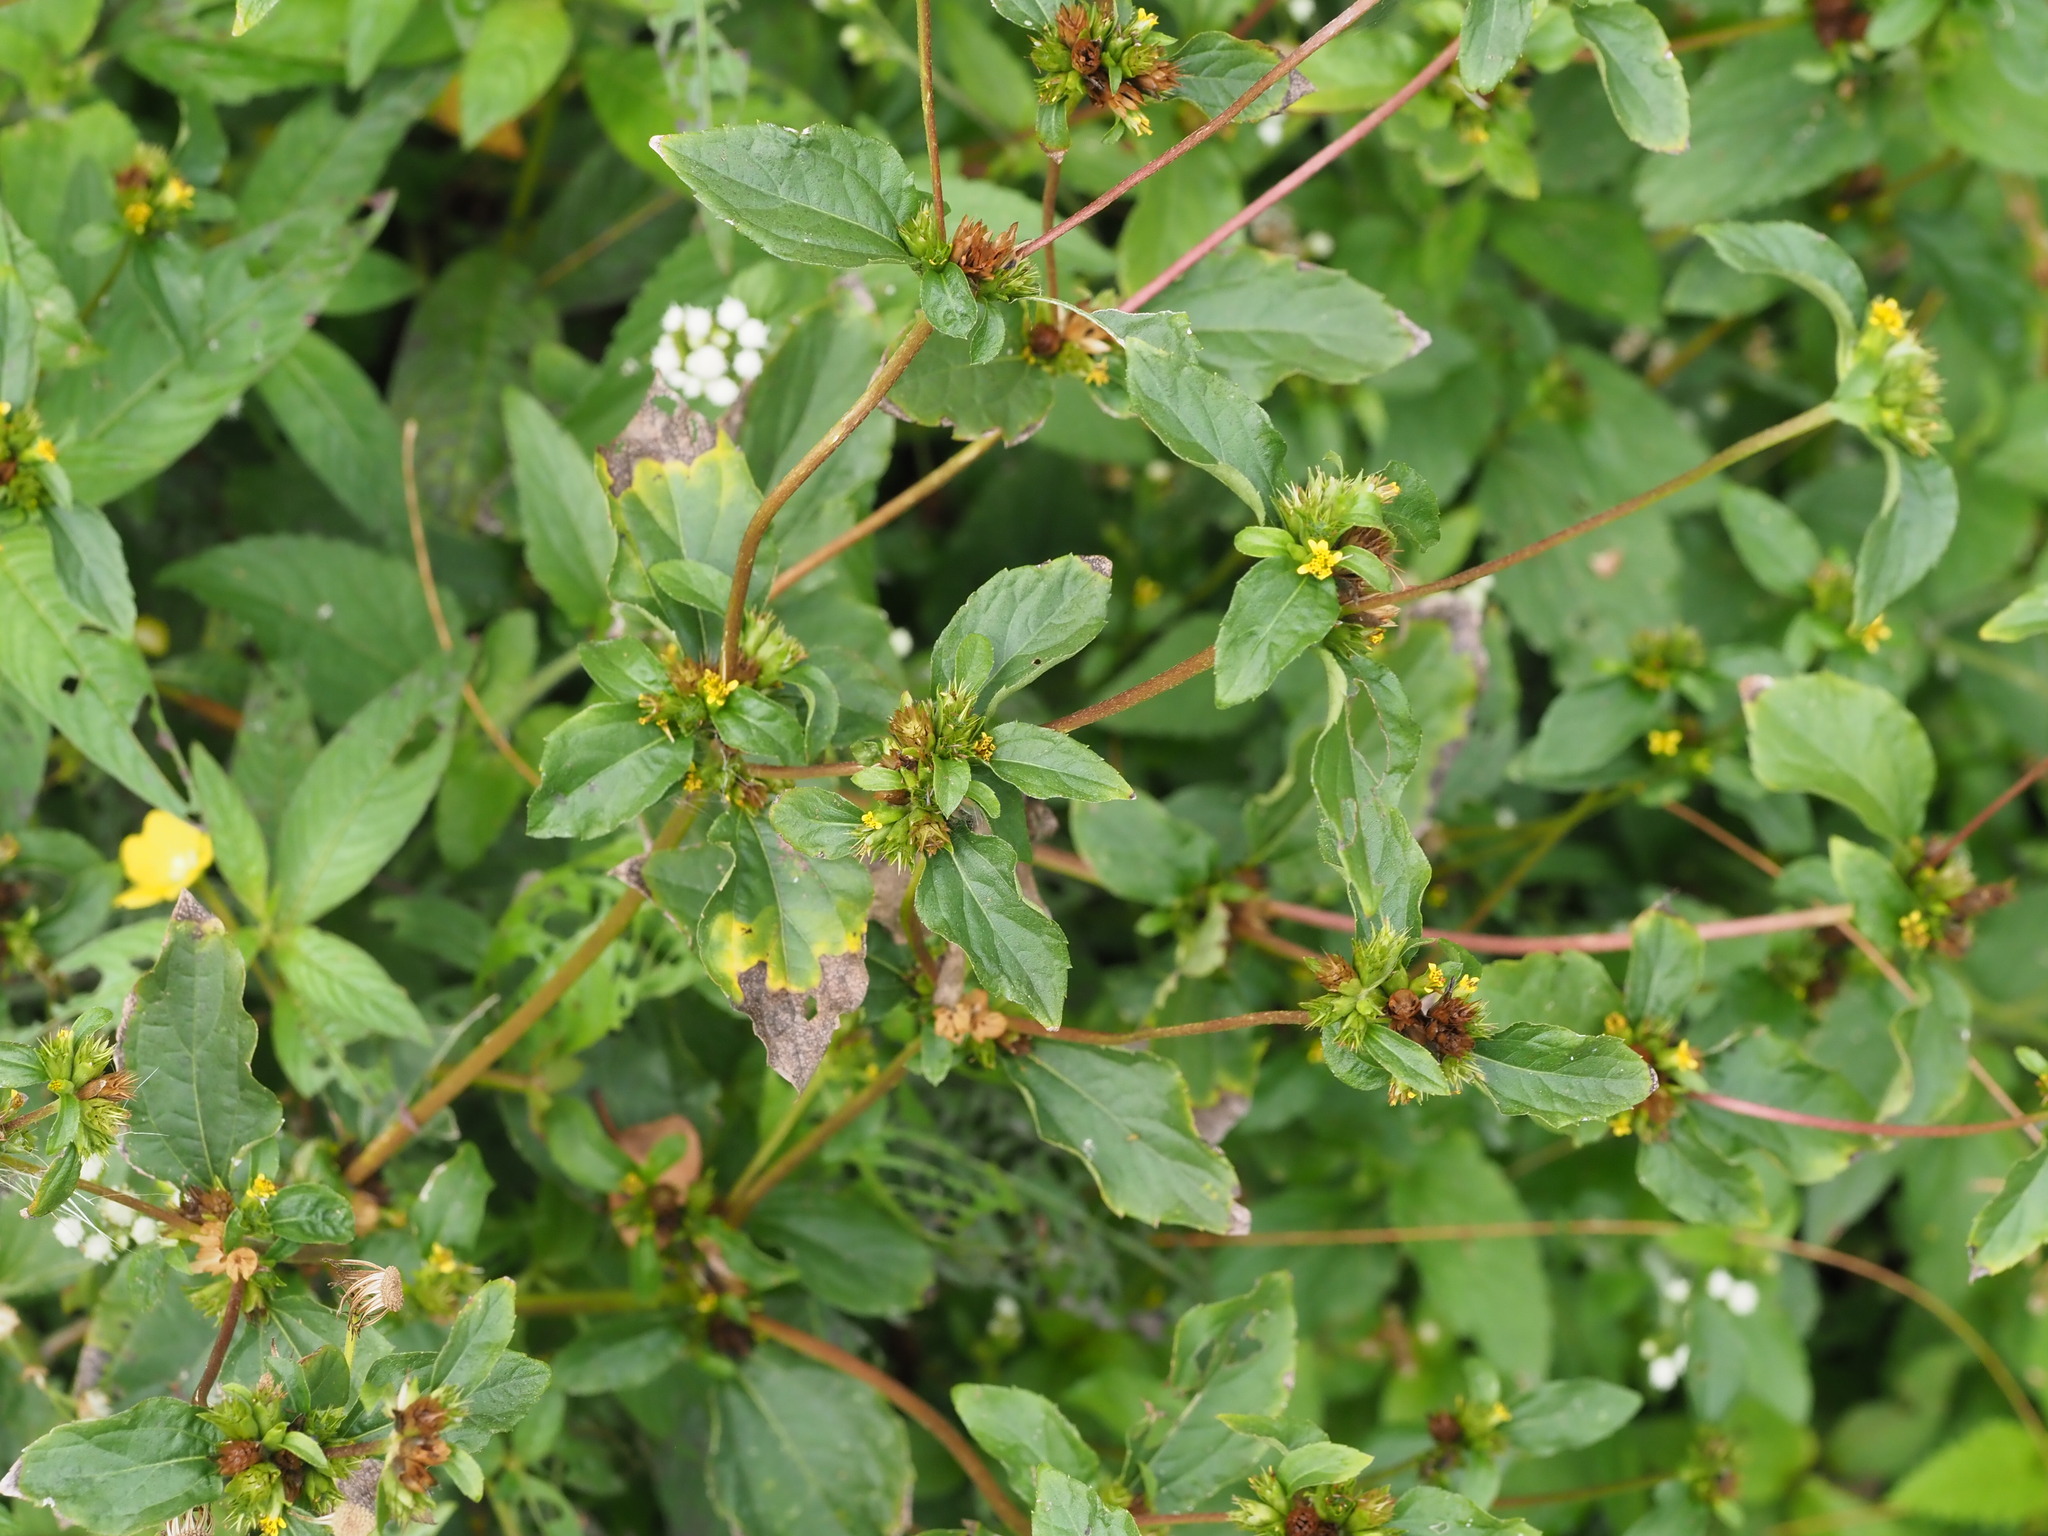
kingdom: Plantae
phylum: Tracheophyta
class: Magnoliopsida
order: Asterales
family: Asteraceae
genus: Synedrella
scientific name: Synedrella nodiflora
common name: Nodeweed
